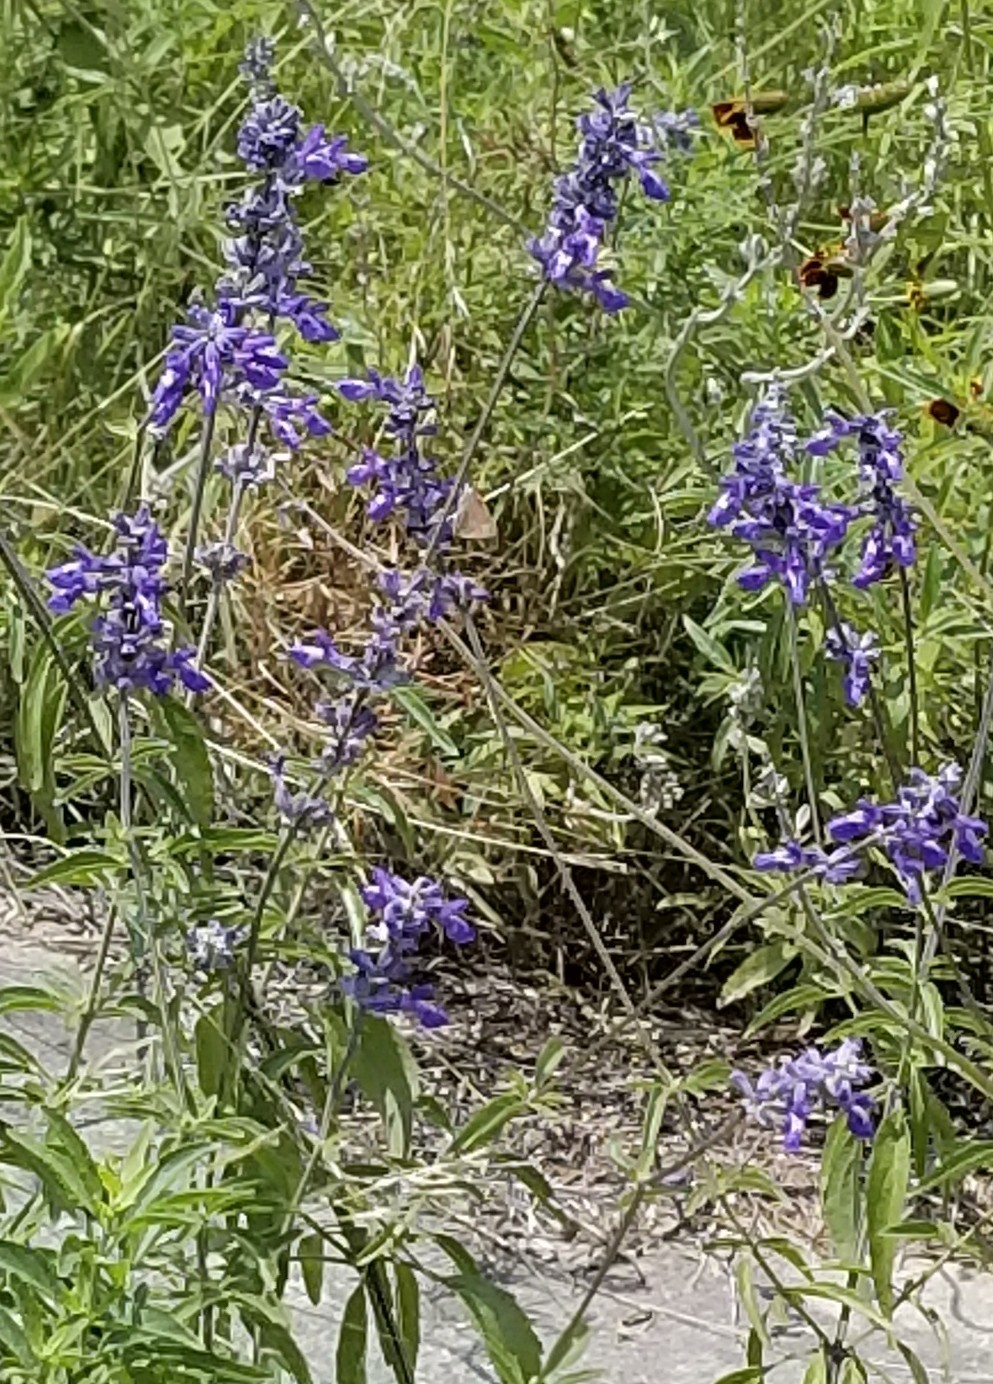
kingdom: Plantae
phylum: Tracheophyta
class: Magnoliopsida
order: Lamiales
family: Lamiaceae
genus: Salvia
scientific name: Salvia farinacea
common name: Mealy sage
